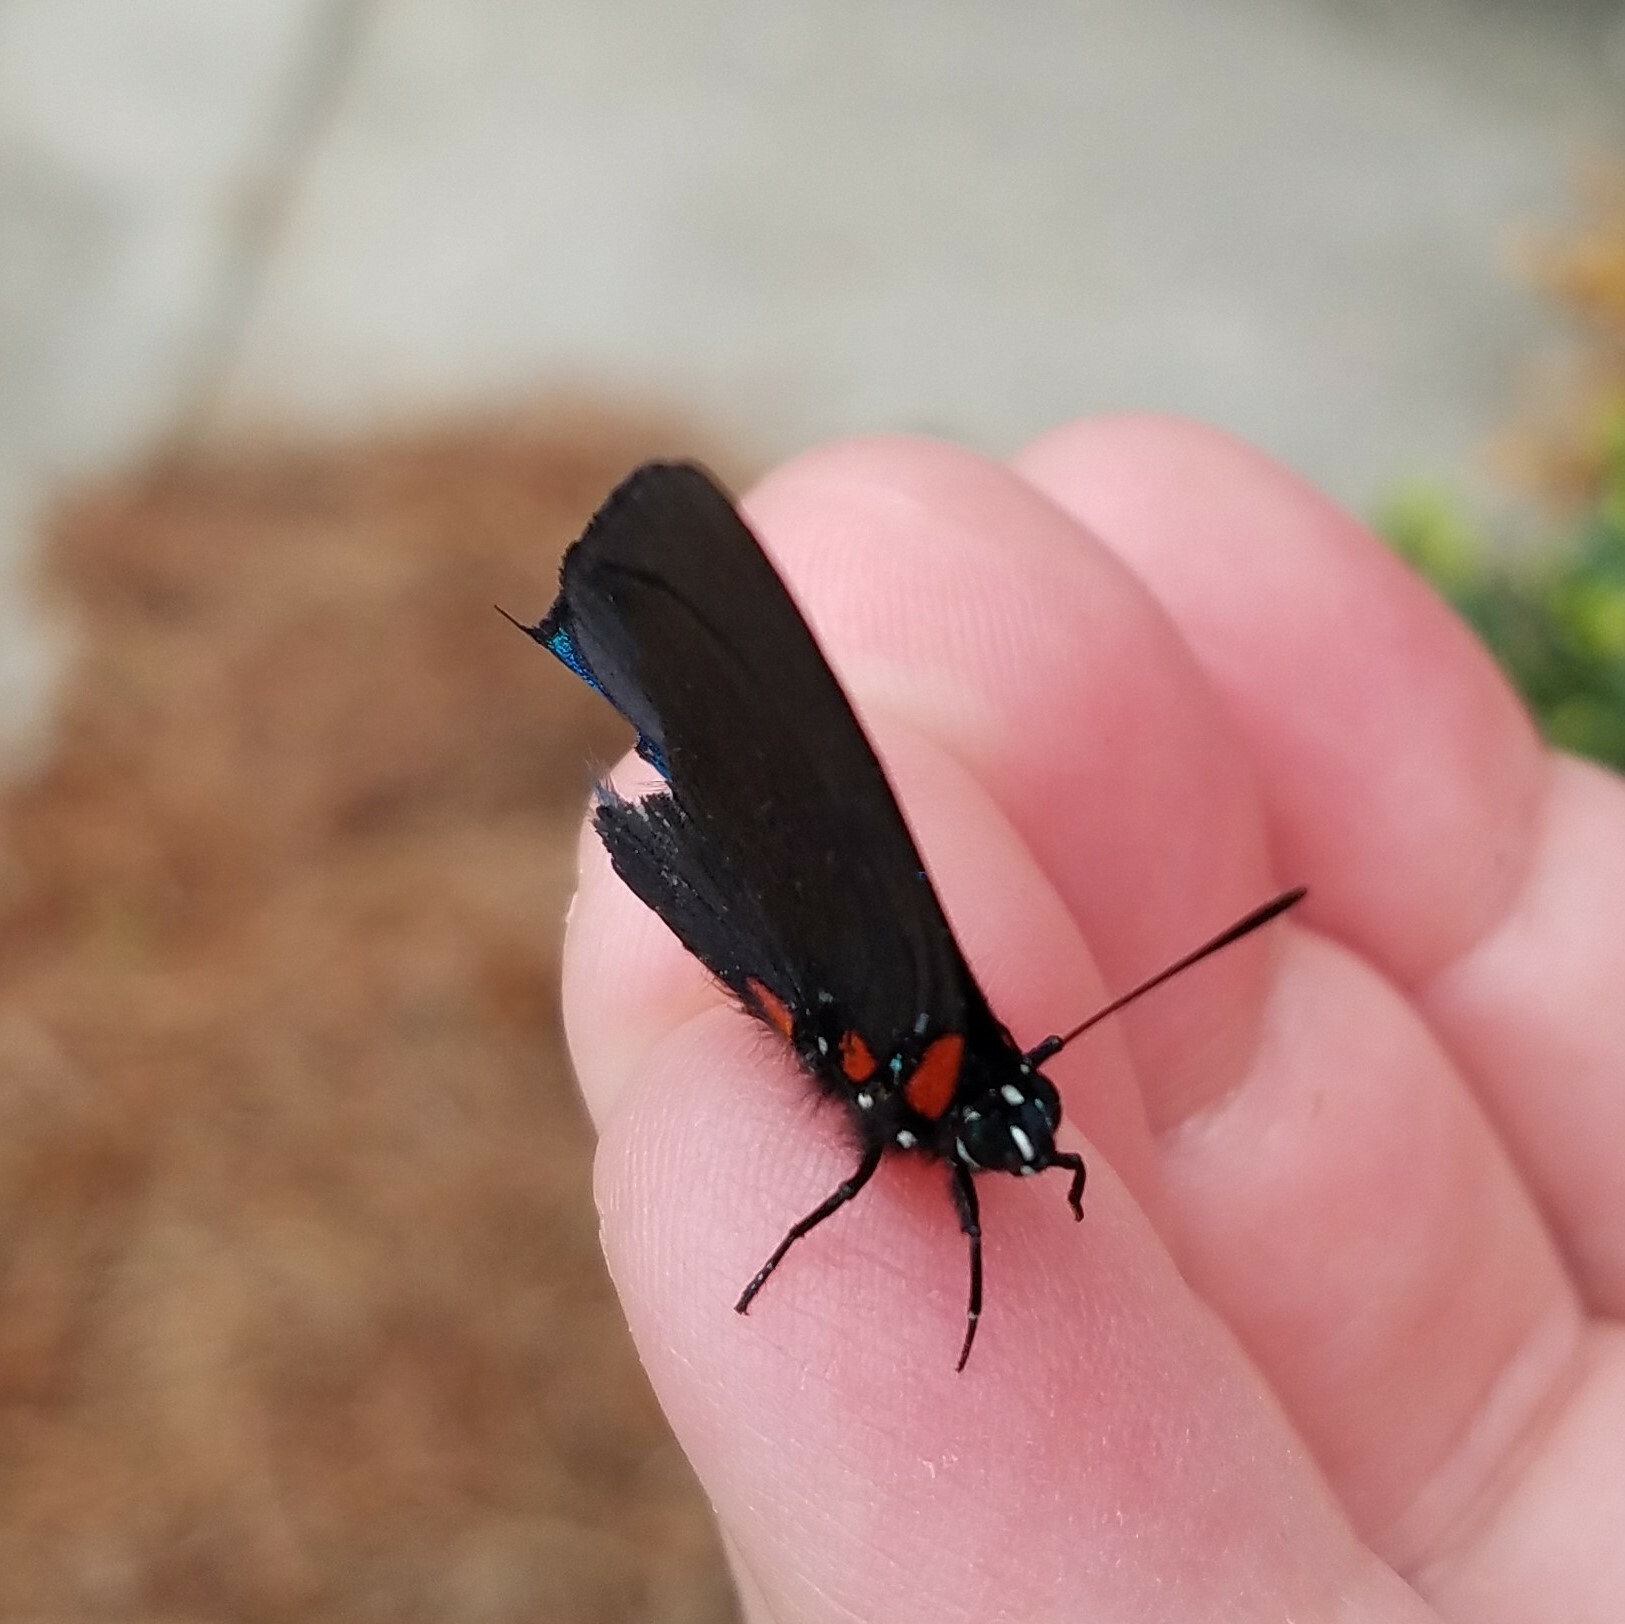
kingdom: Animalia
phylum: Arthropoda
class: Insecta
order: Lepidoptera
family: Lycaenidae
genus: Atlides
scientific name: Atlides halesus
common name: Great purple hairstreak
